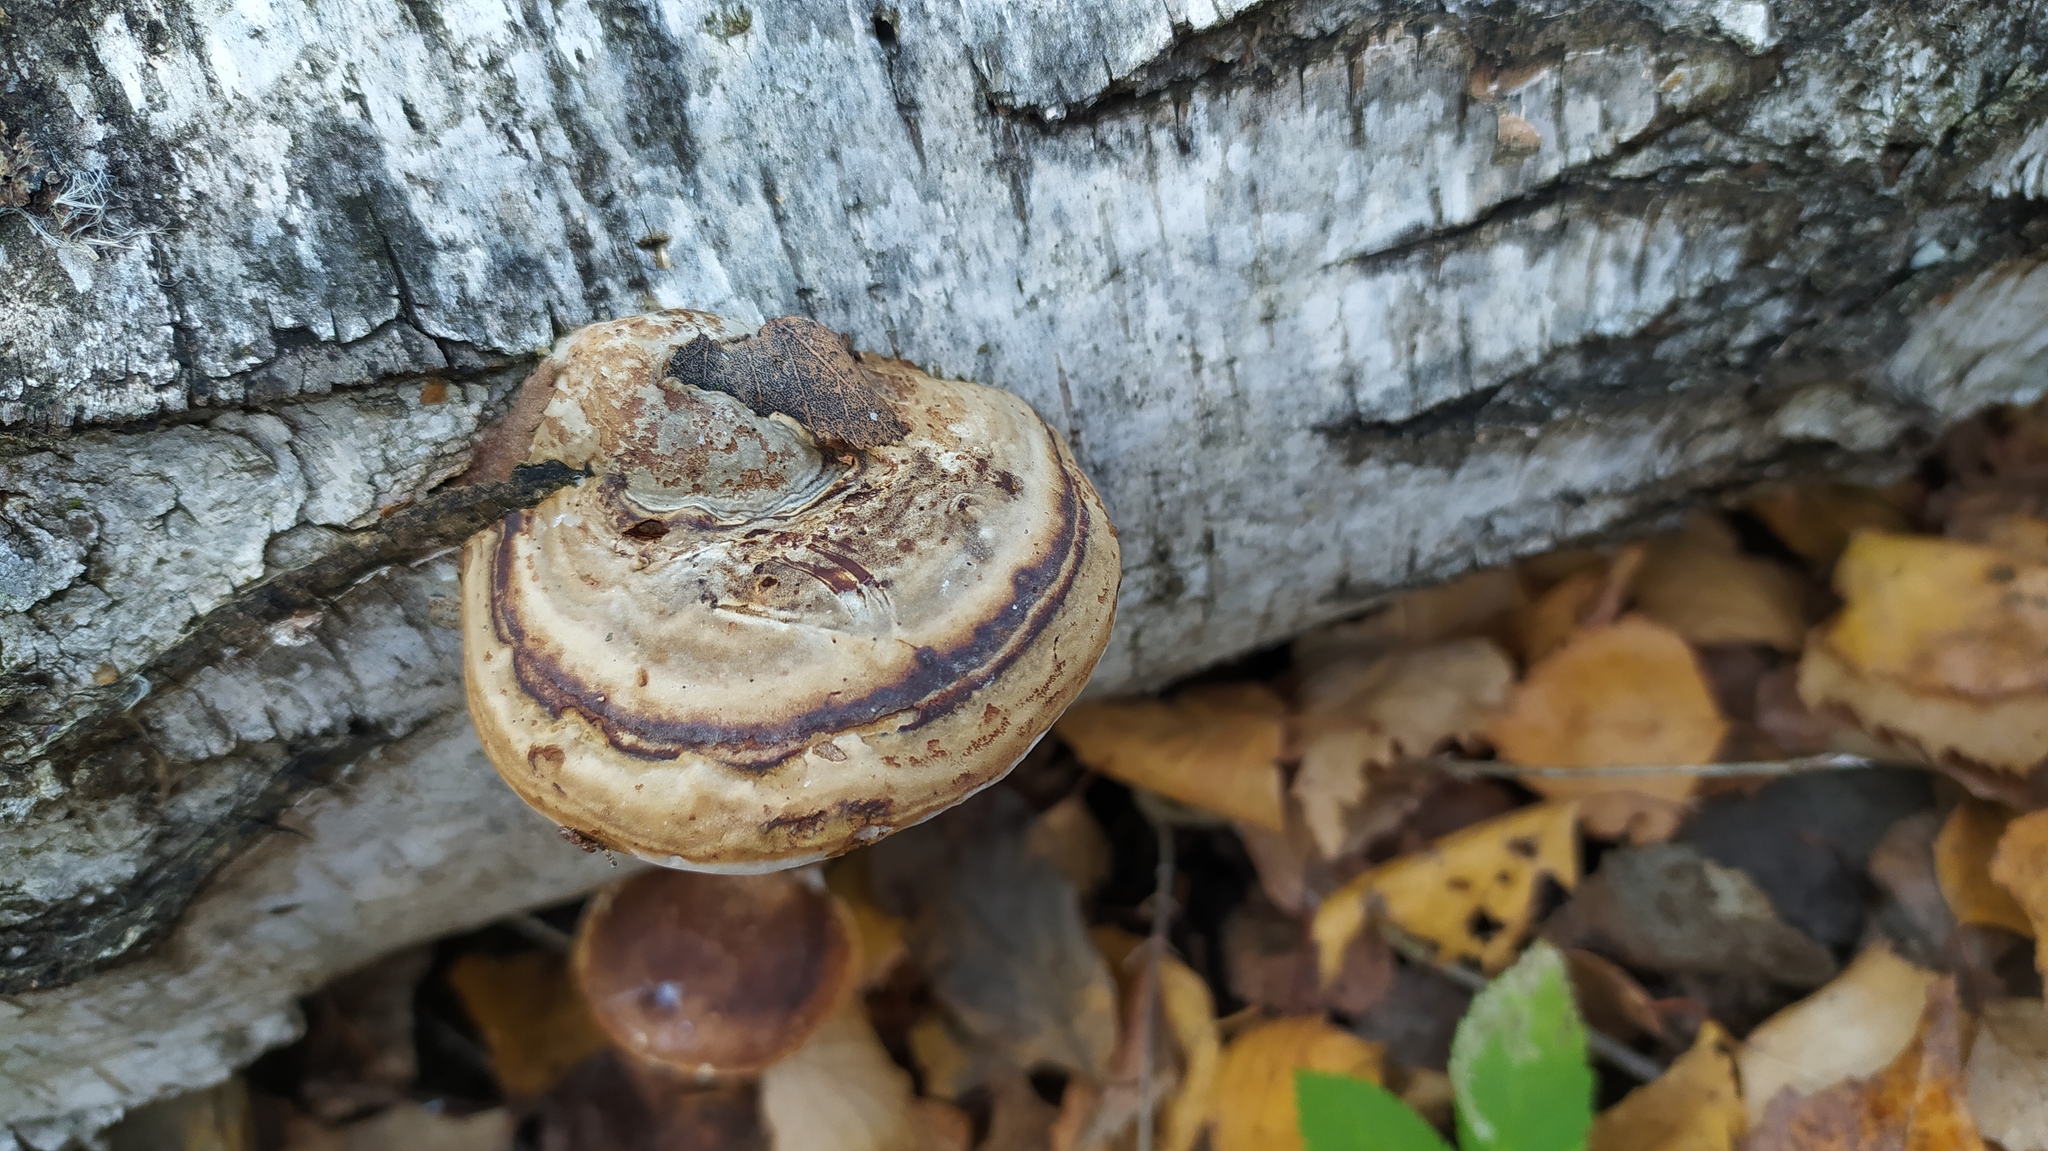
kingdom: Fungi
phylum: Basidiomycota
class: Agaricomycetes
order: Polyporales
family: Polyporaceae
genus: Fomes
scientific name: Fomes fomentarius
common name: Hoof fungus
